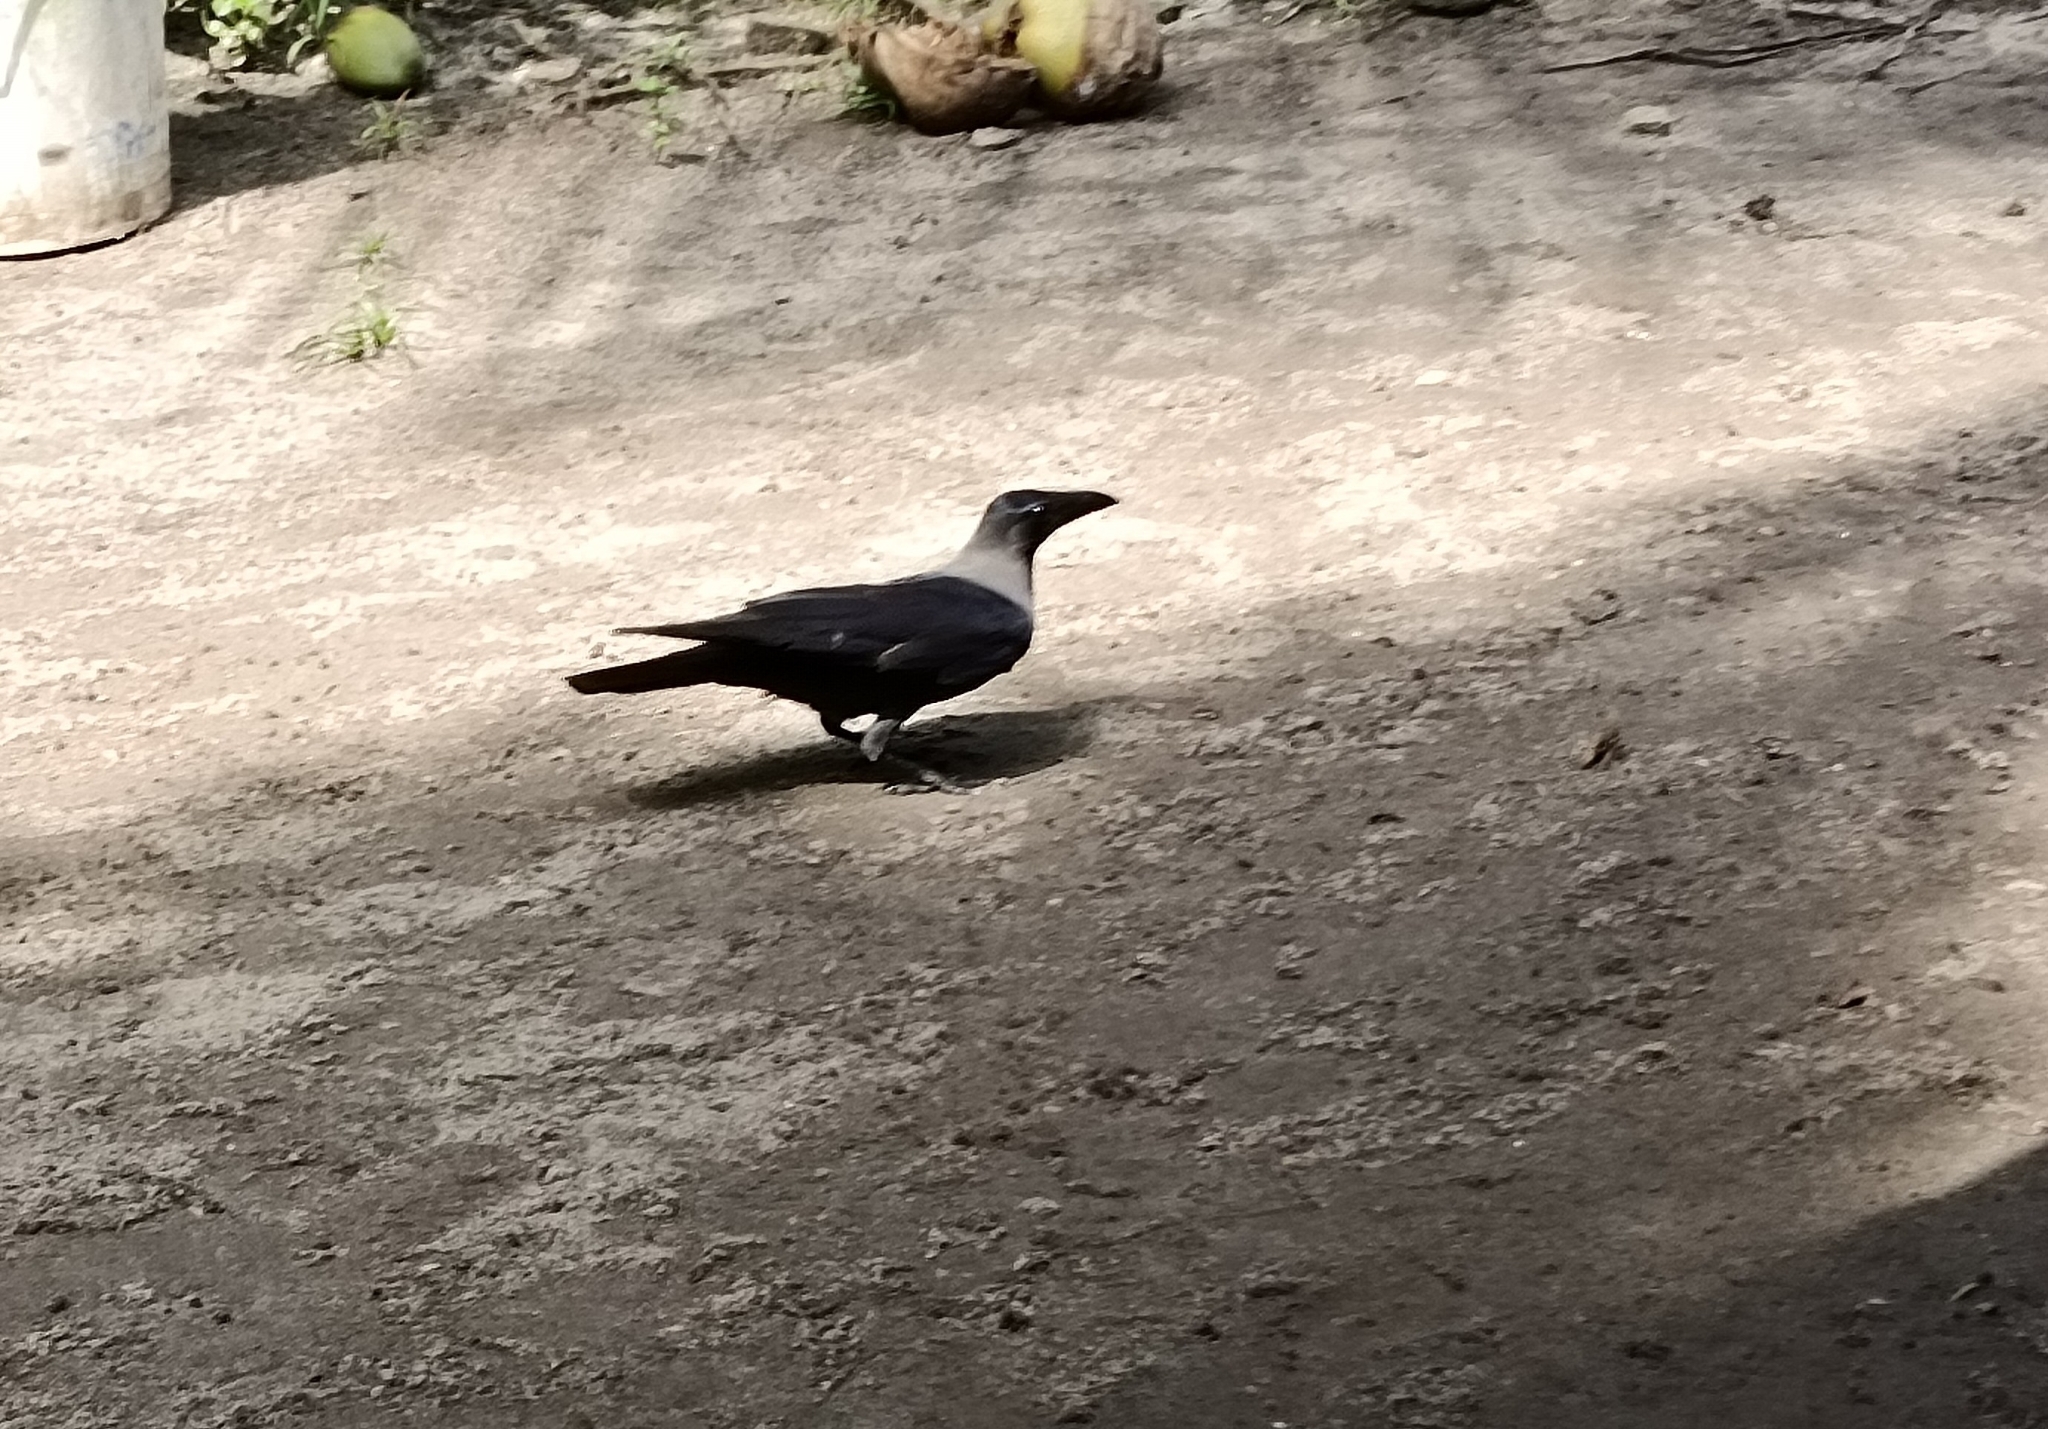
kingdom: Animalia
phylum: Chordata
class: Aves
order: Passeriformes
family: Corvidae
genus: Corvus
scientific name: Corvus splendens
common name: House crow
